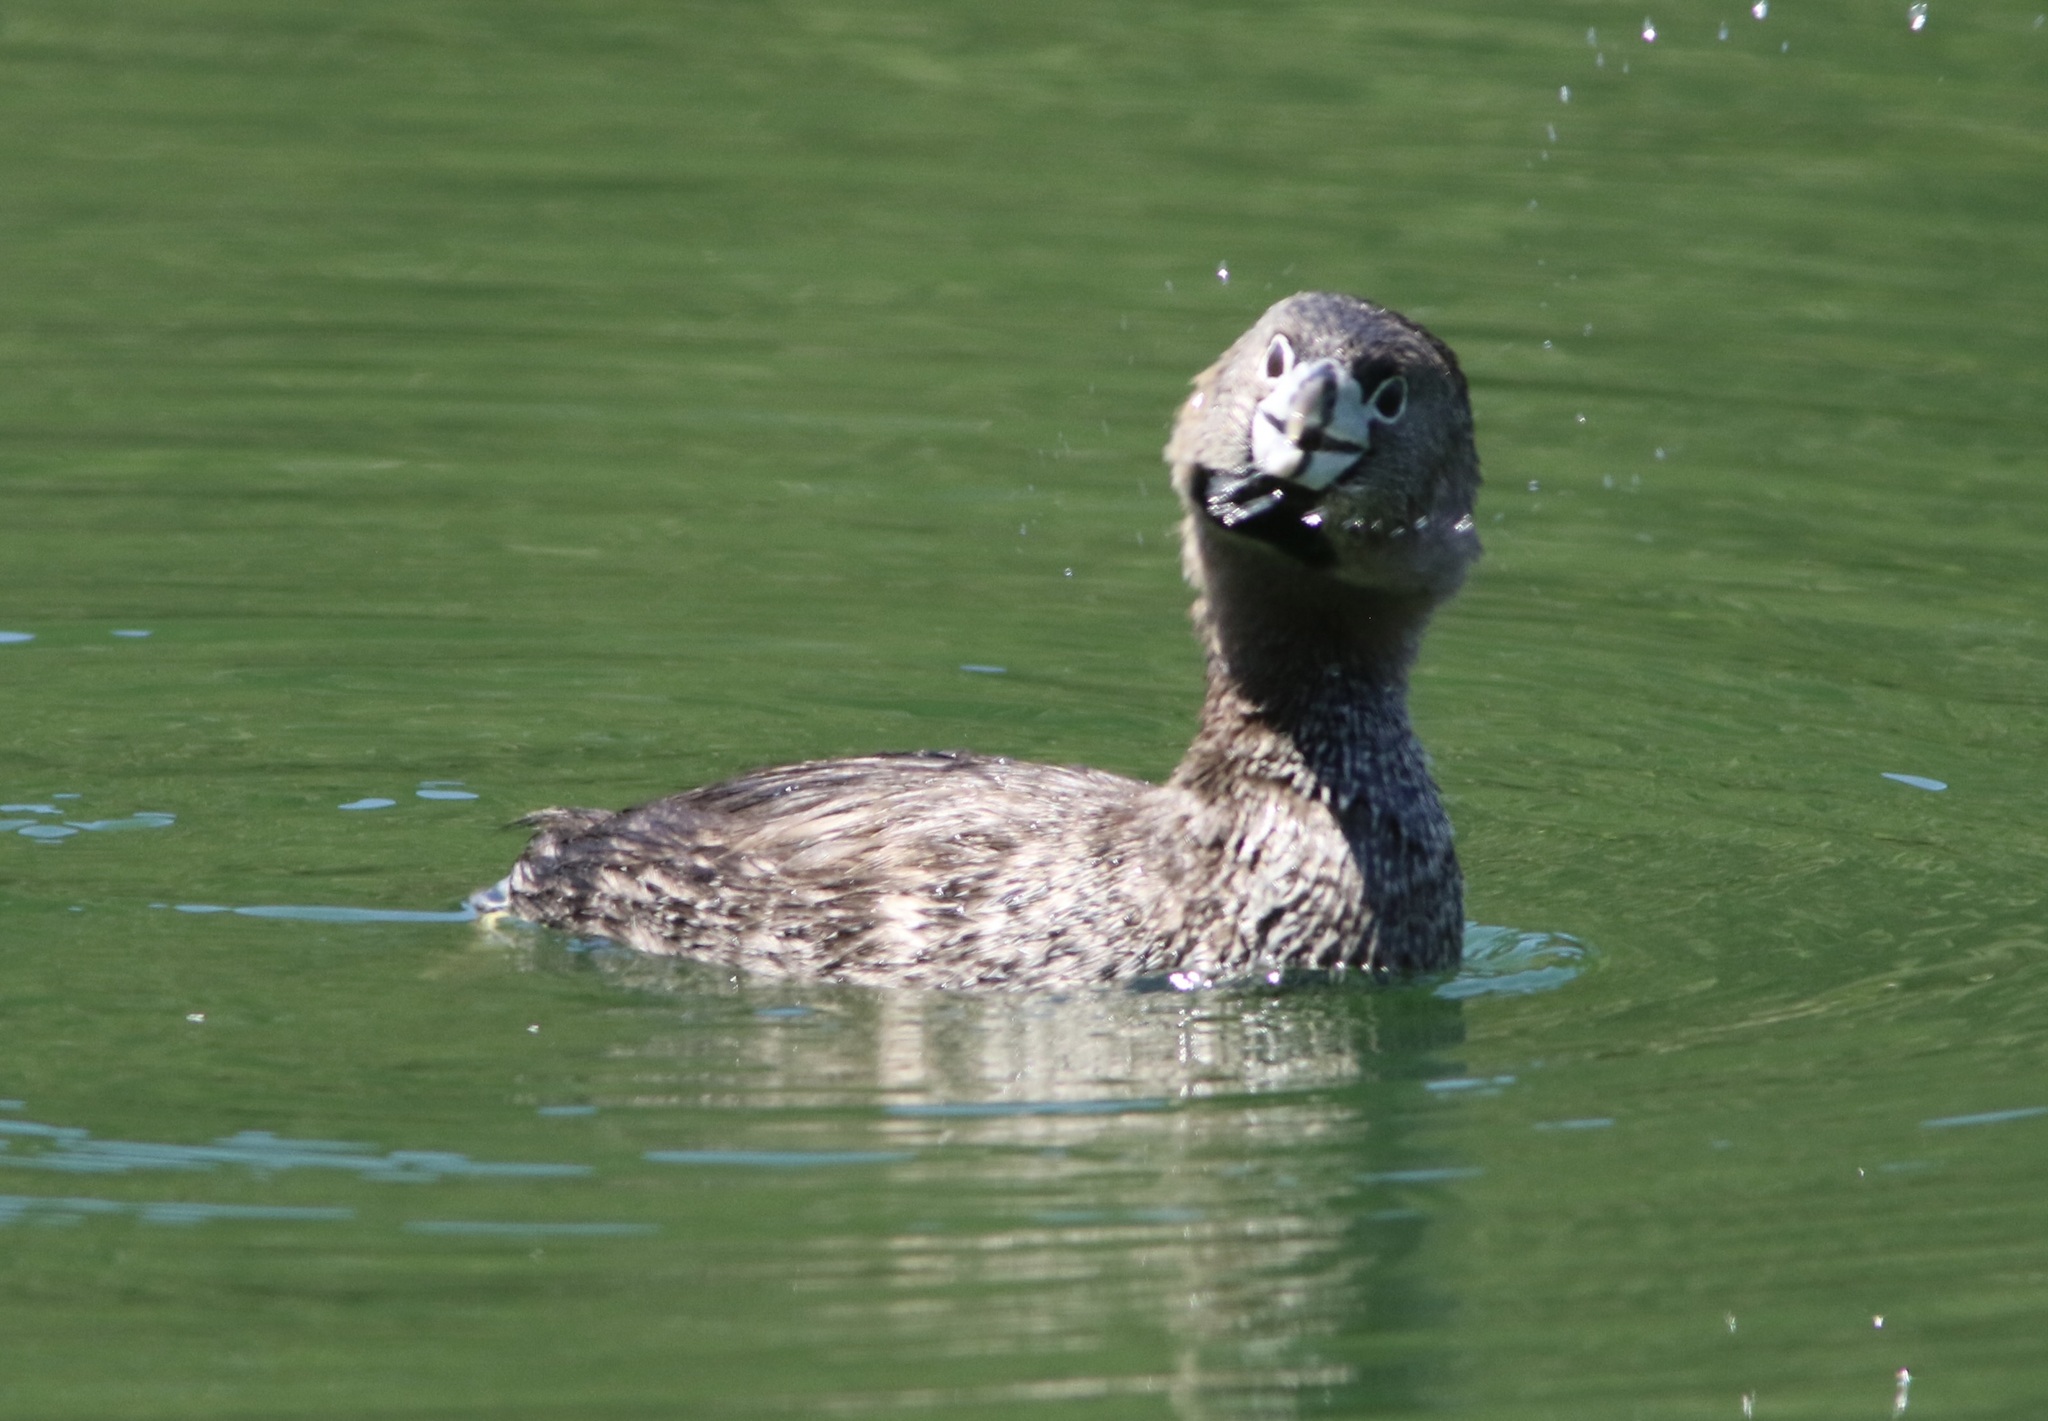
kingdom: Animalia
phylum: Chordata
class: Aves
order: Podicipediformes
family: Podicipedidae
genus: Podilymbus
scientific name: Podilymbus podiceps
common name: Pied-billed grebe
